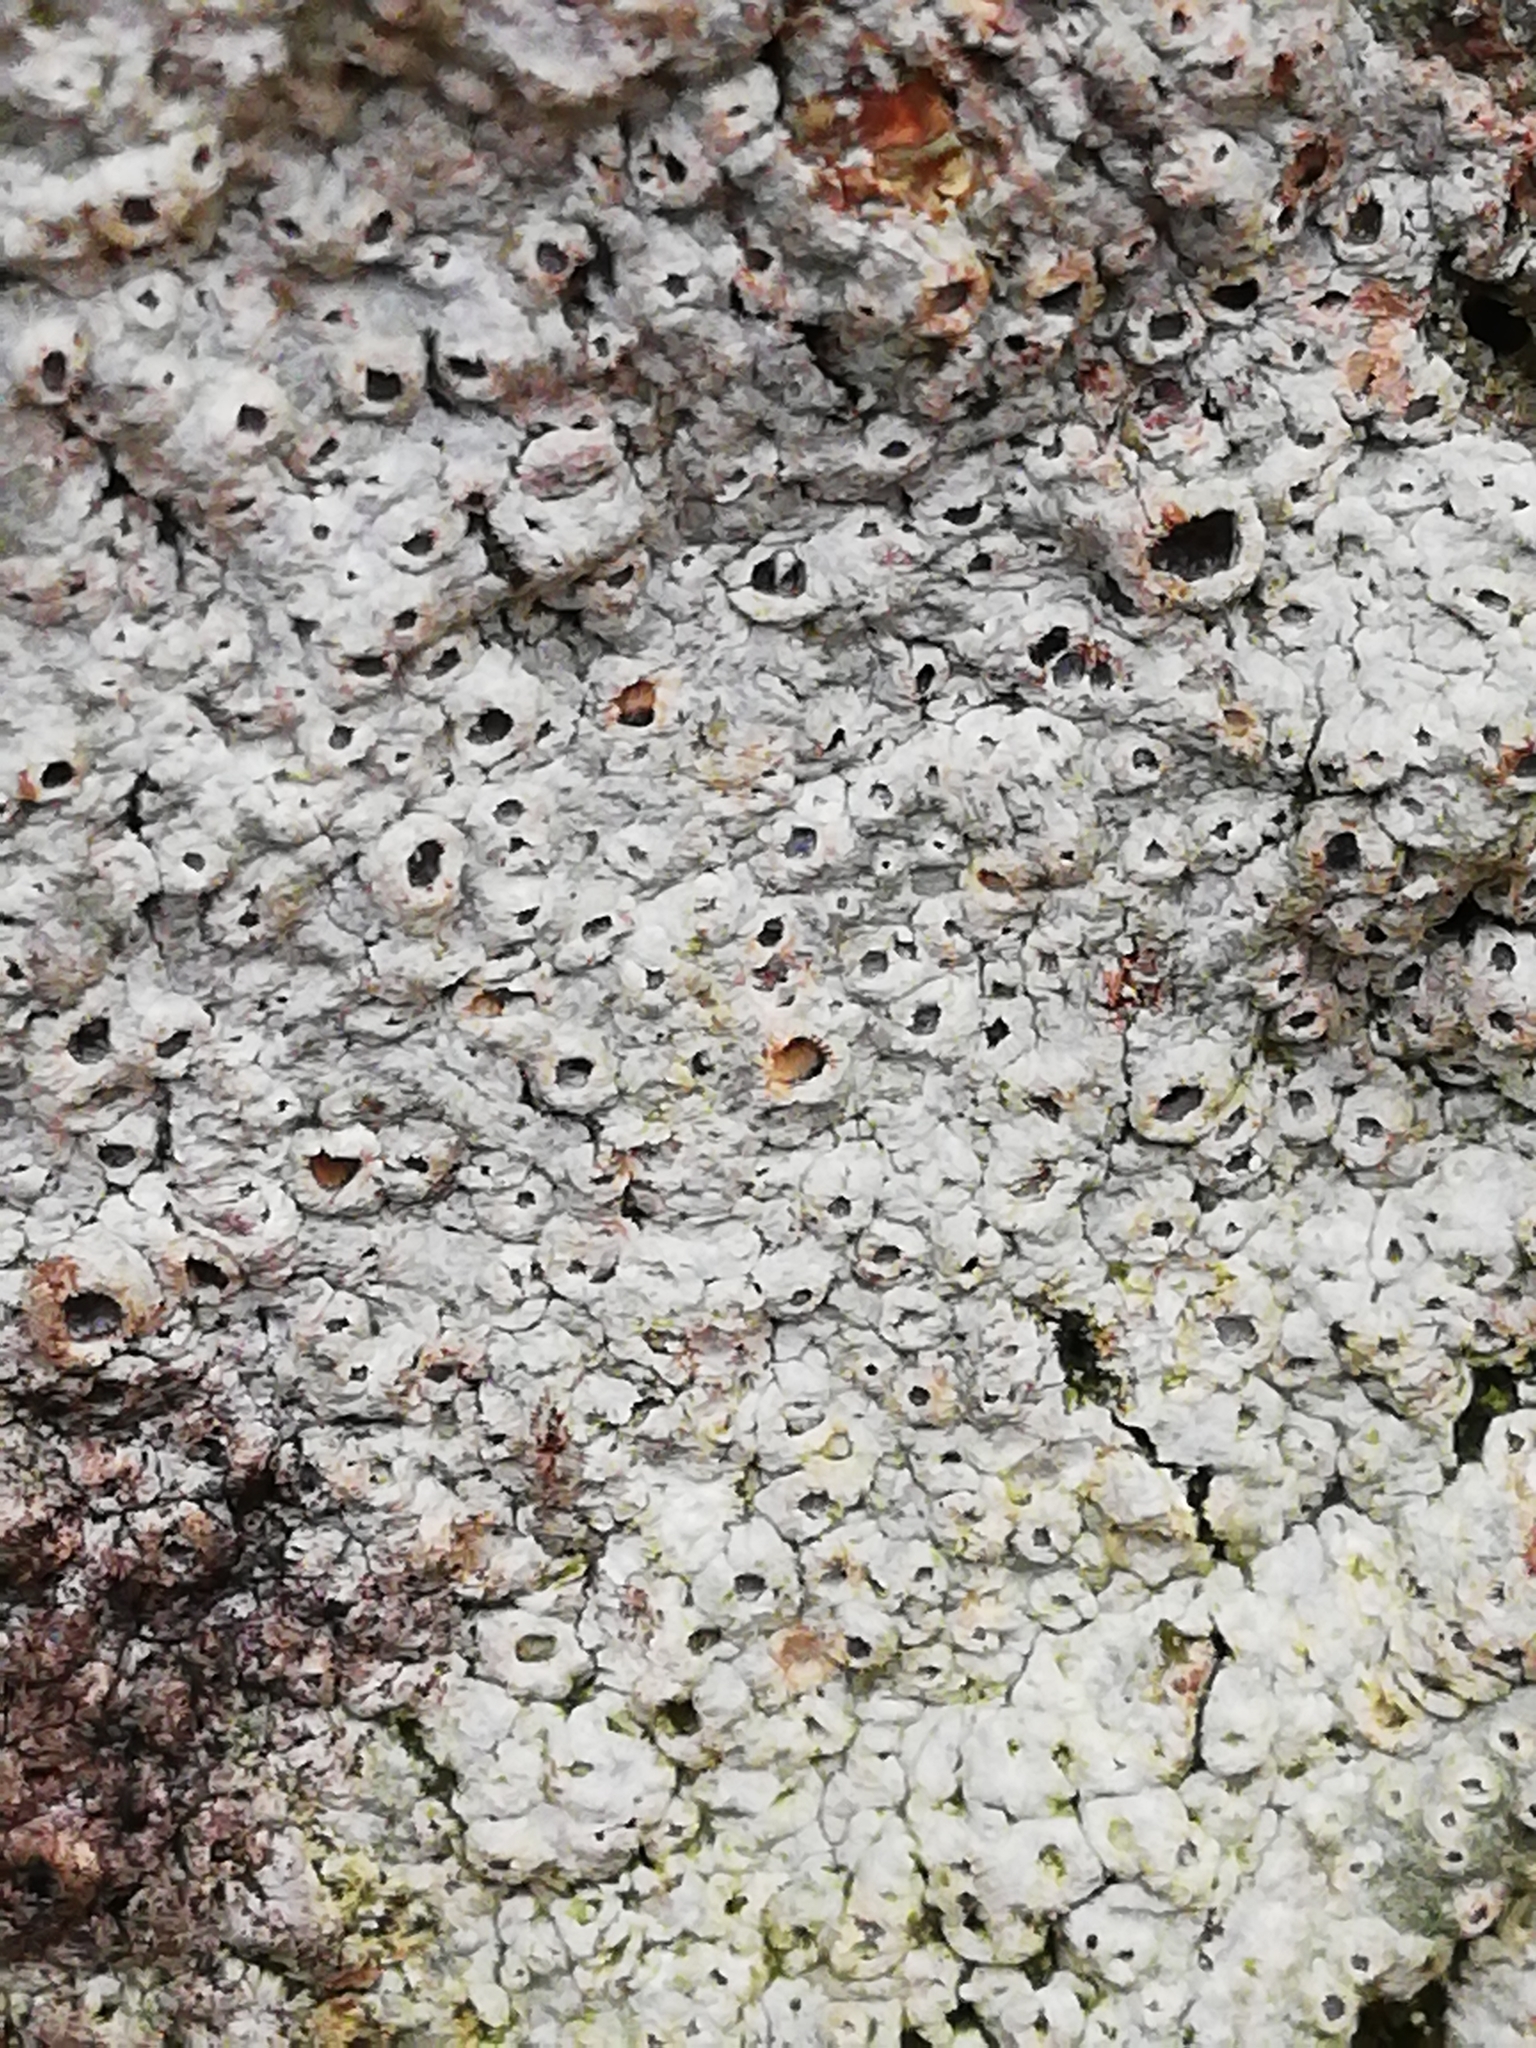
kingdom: Fungi
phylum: Ascomycota
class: Lecanoromycetes
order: Ostropales
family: Graphidaceae
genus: Thelotrema
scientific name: Thelotrema lepadinum
